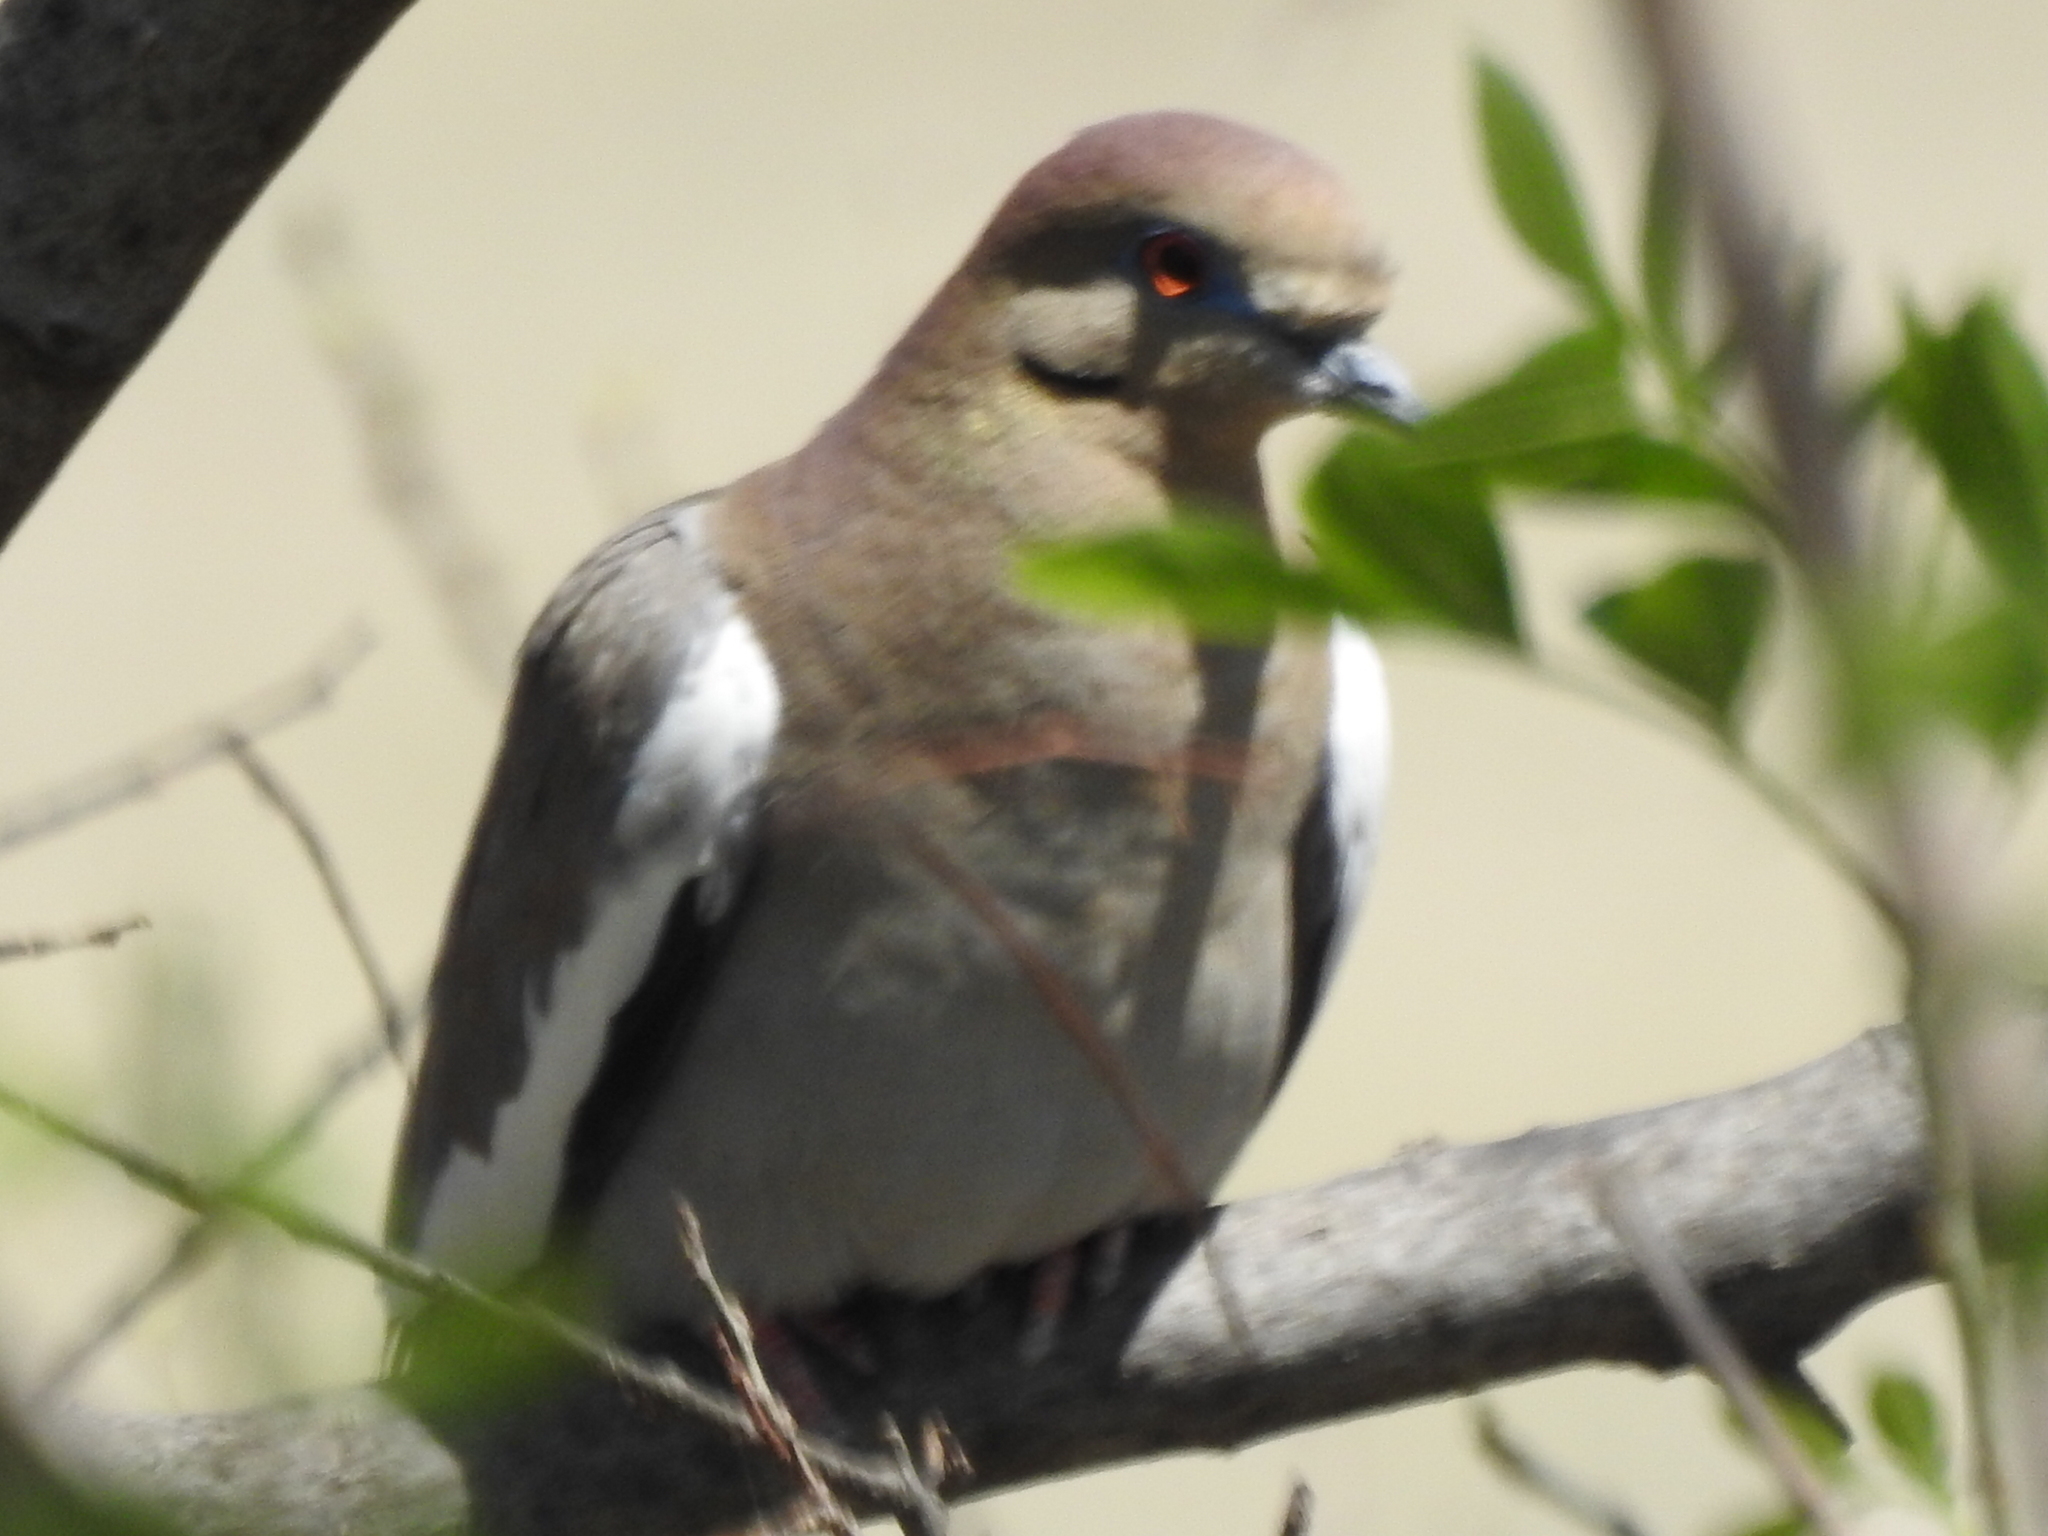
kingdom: Animalia
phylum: Chordata
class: Aves
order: Columbiformes
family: Columbidae
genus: Zenaida
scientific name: Zenaida asiatica
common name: White-winged dove
